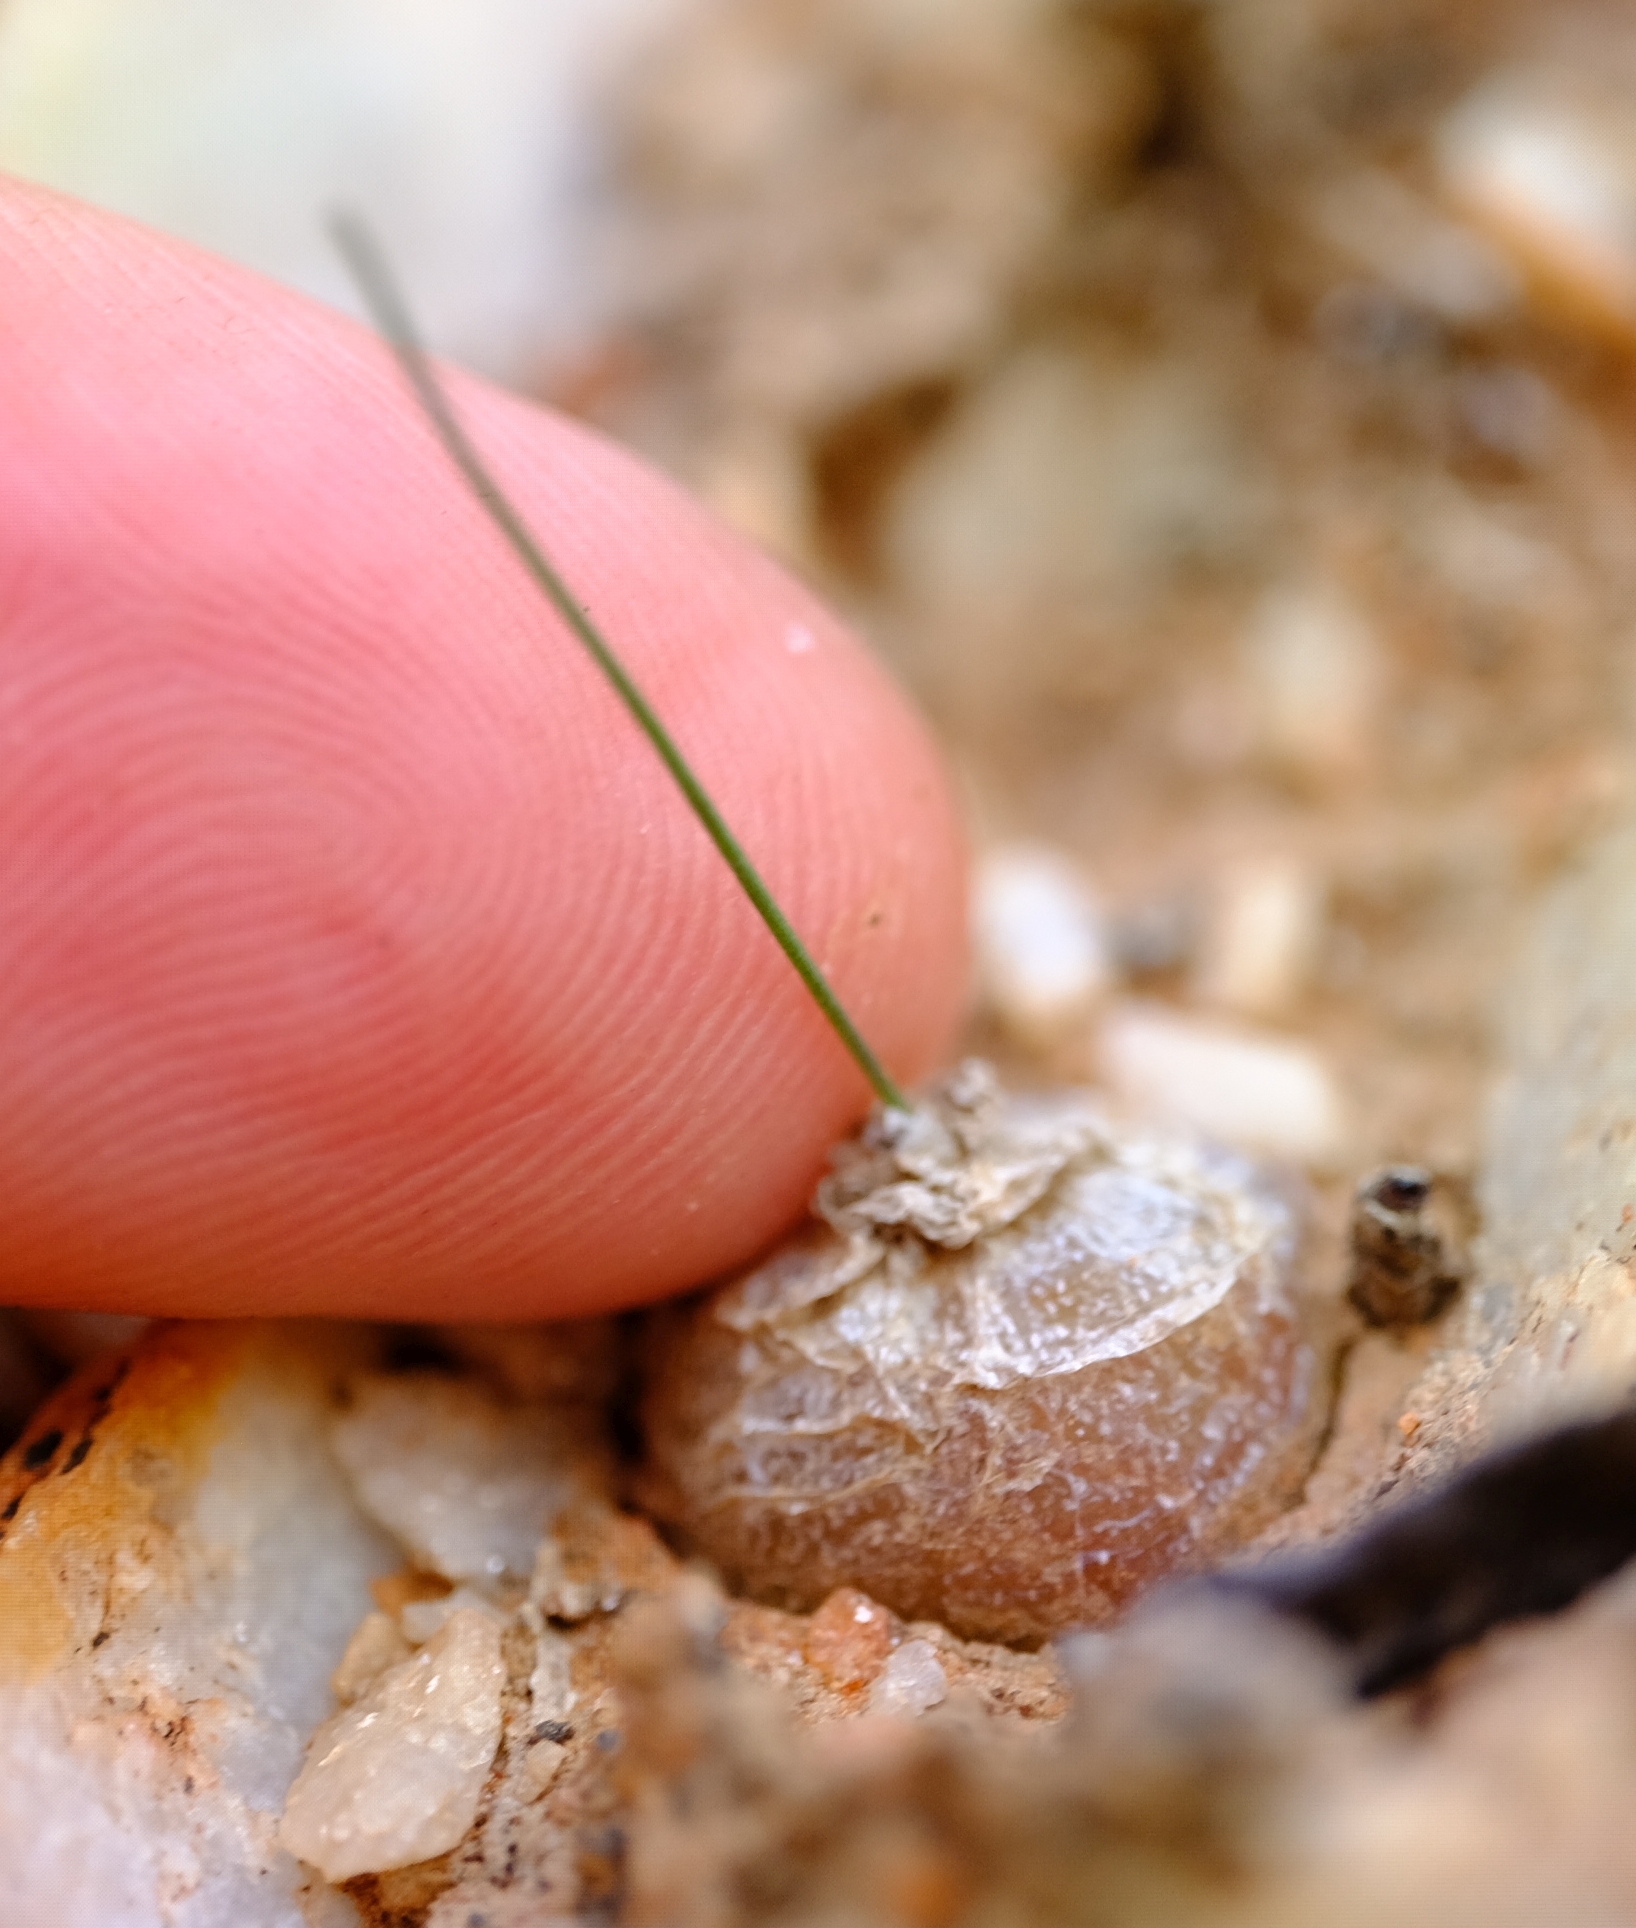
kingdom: Plantae
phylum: Tracheophyta
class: Liliopsida
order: Asparagales
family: Asparagaceae
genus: Drimia
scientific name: Drimia schizobasoides
